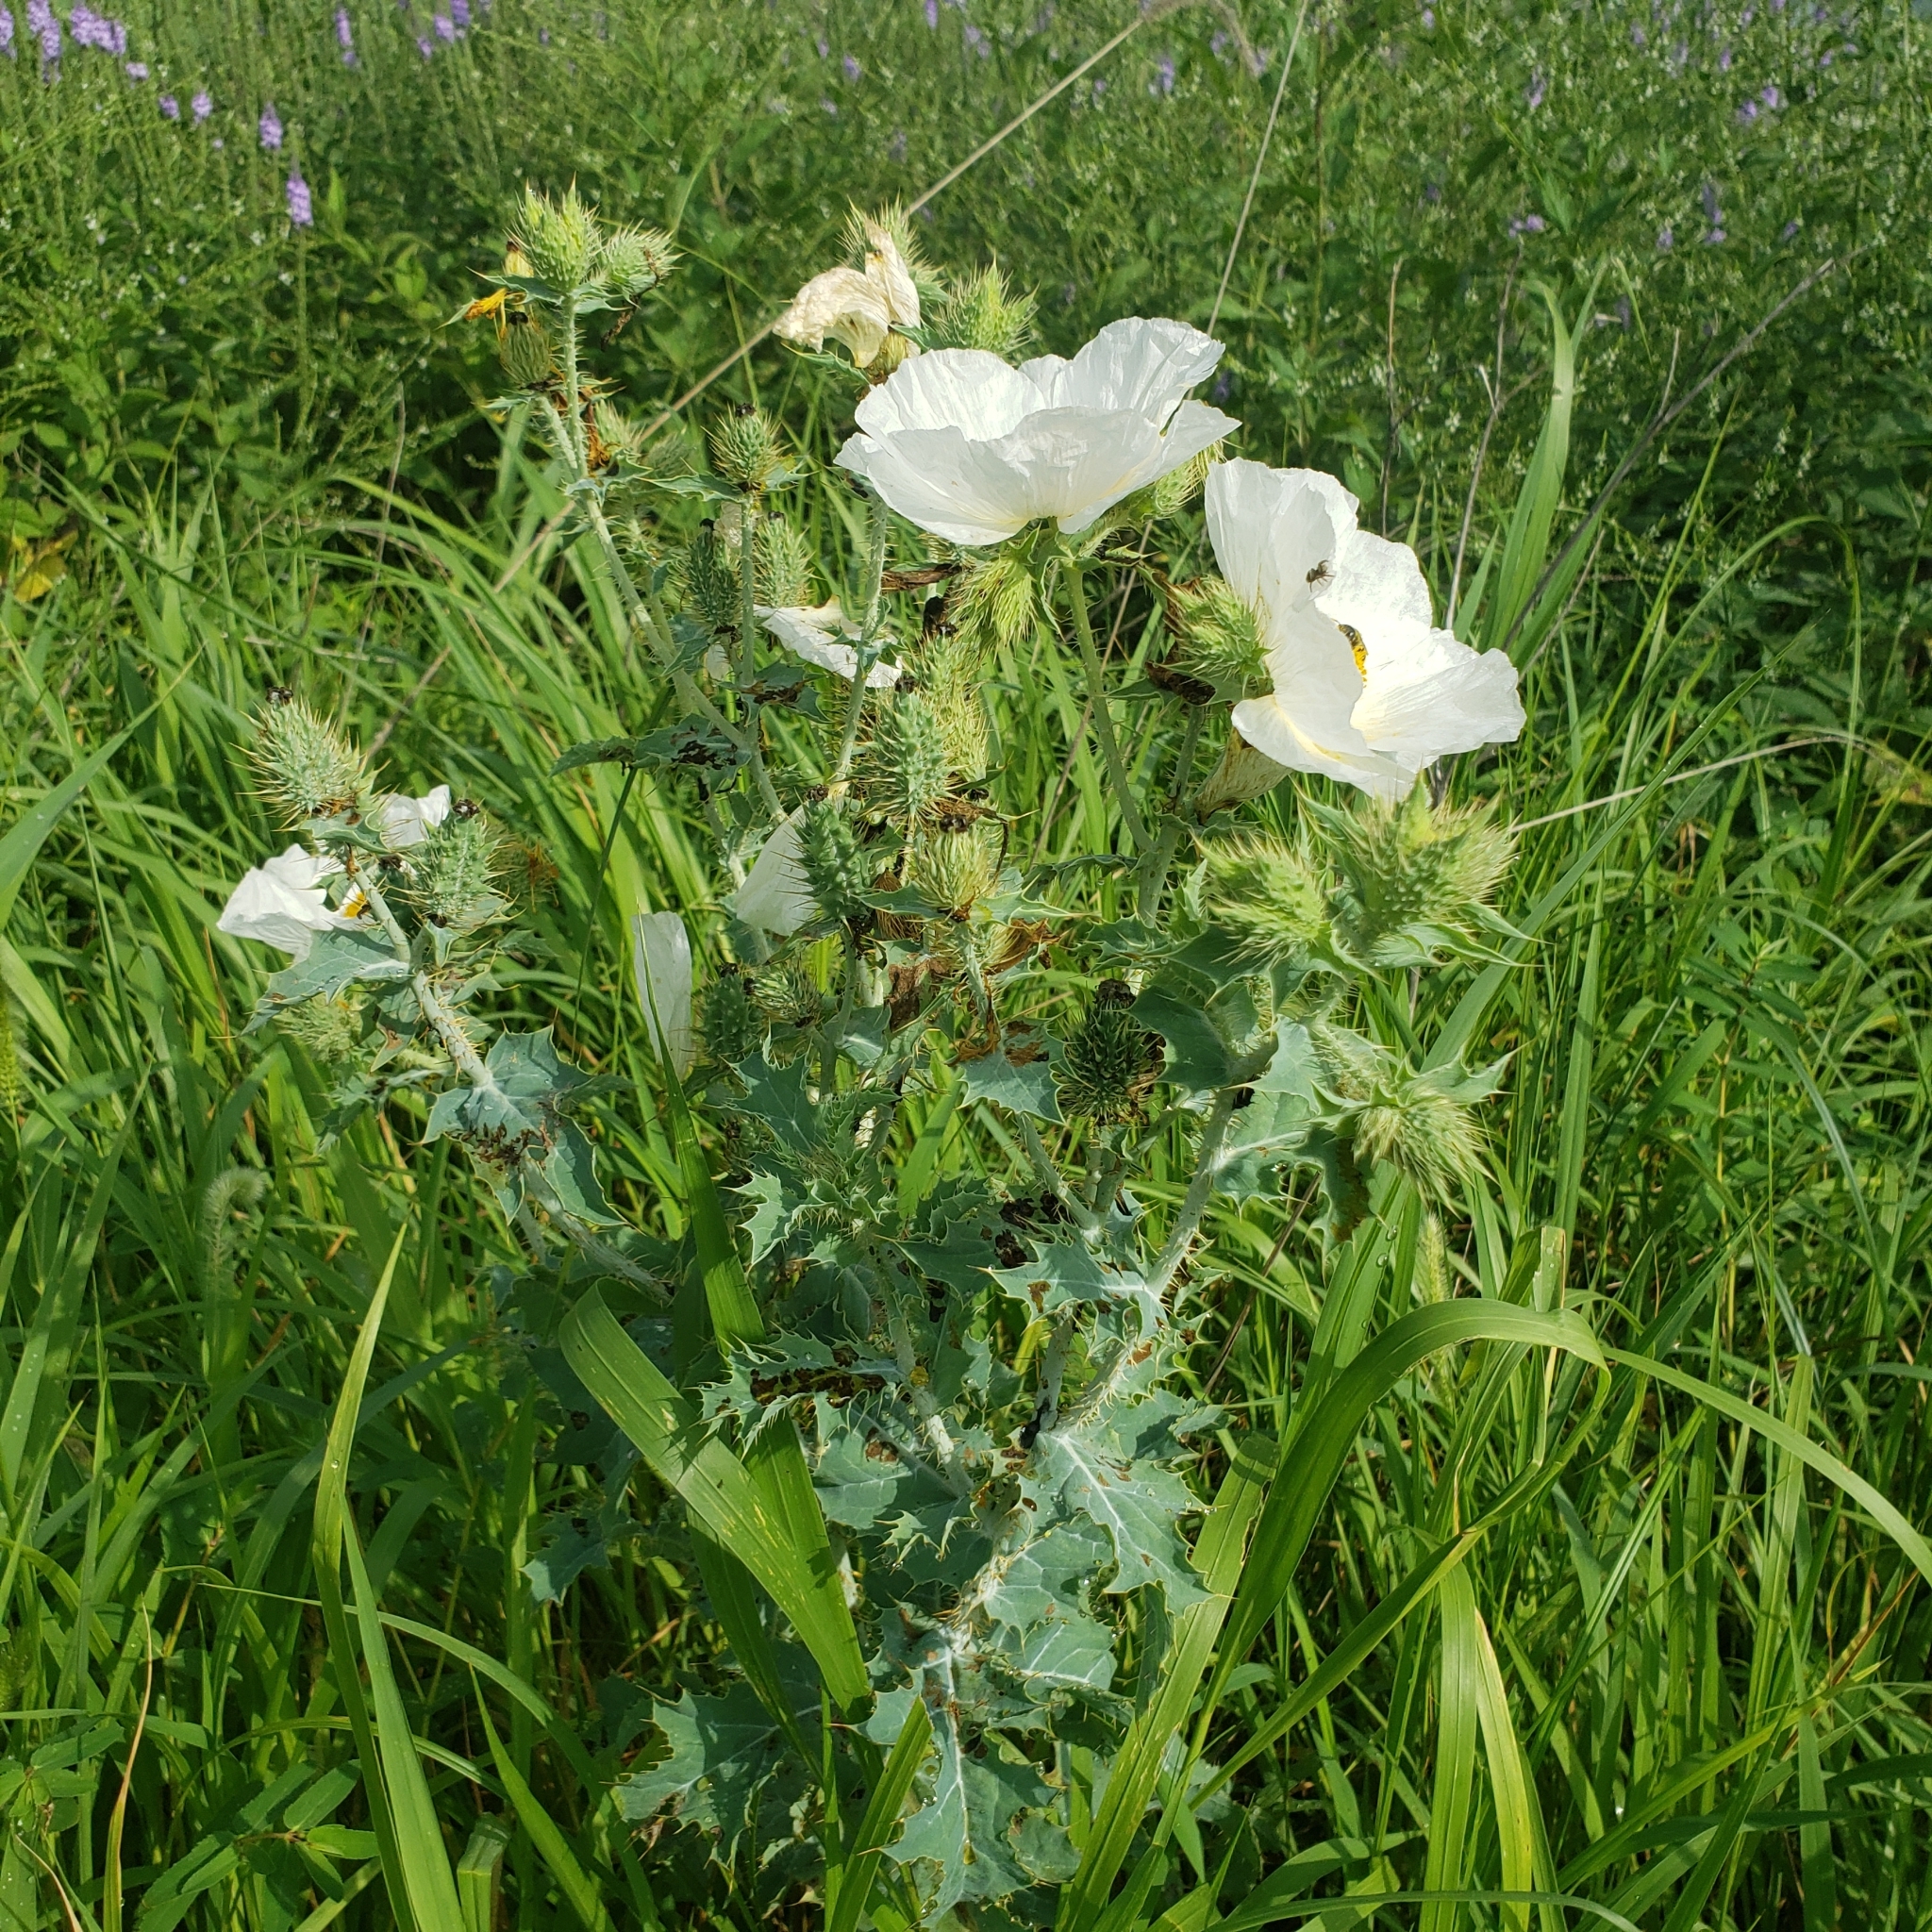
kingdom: Plantae
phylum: Tracheophyta
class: Magnoliopsida
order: Ranunculales
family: Papaveraceae
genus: Argemone
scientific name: Argemone polyanthemos
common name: Plains prickly-poppy
